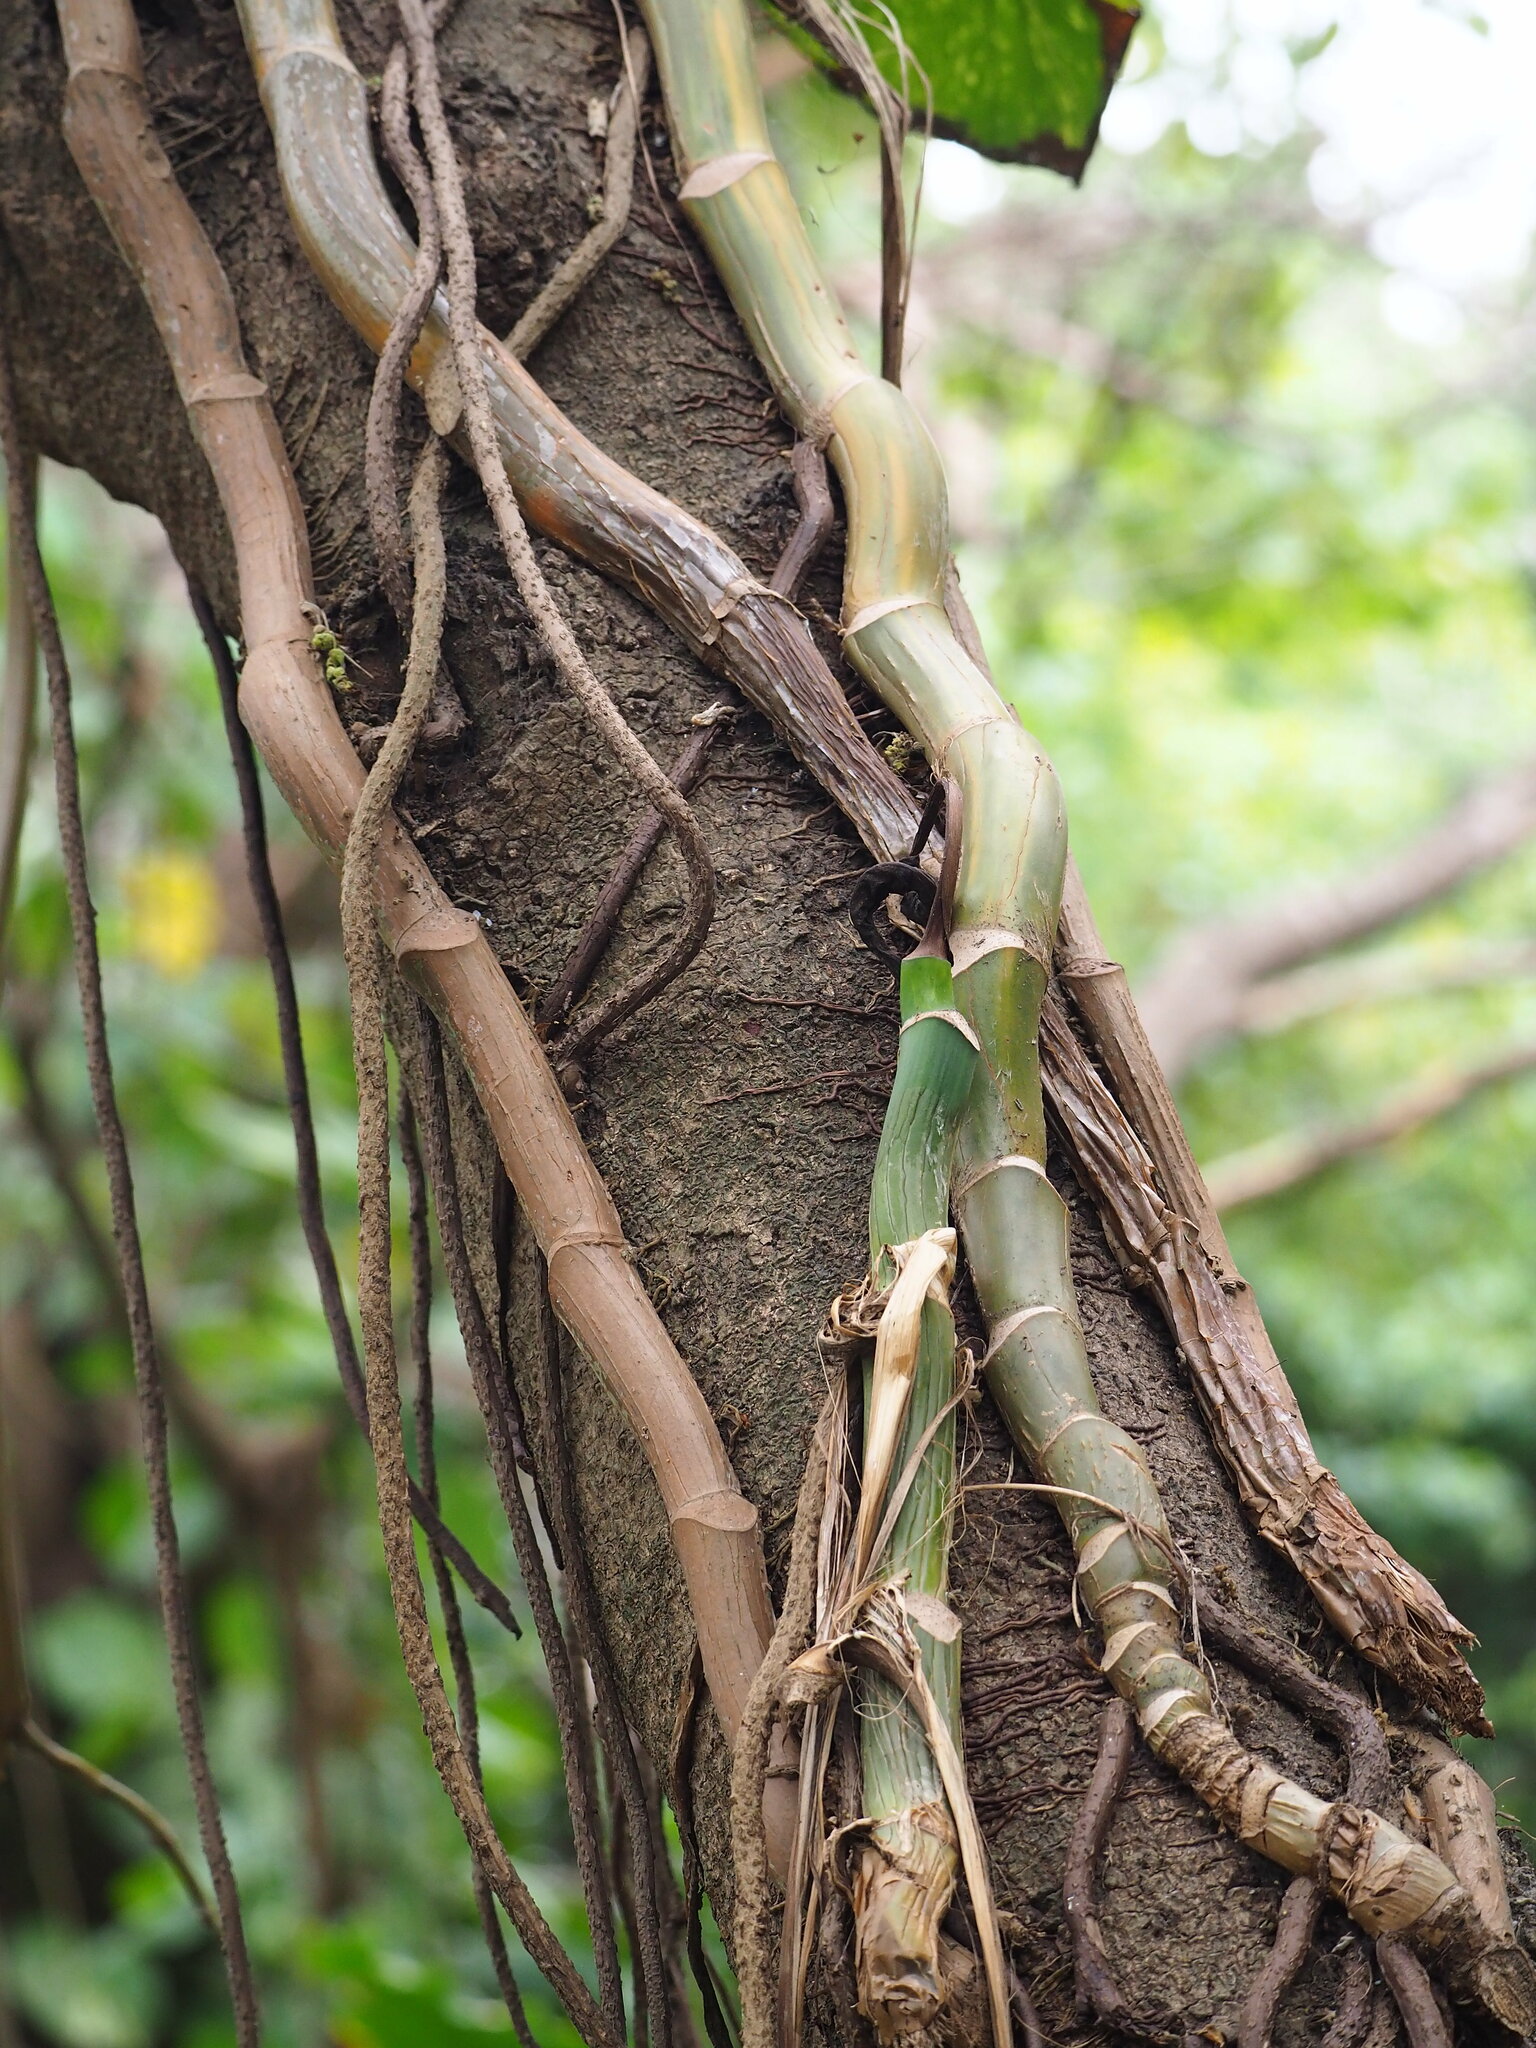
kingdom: Plantae
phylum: Tracheophyta
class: Liliopsida
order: Alismatales
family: Araceae
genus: Epipremnum
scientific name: Epipremnum aureum
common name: Golden hunter's-robe
